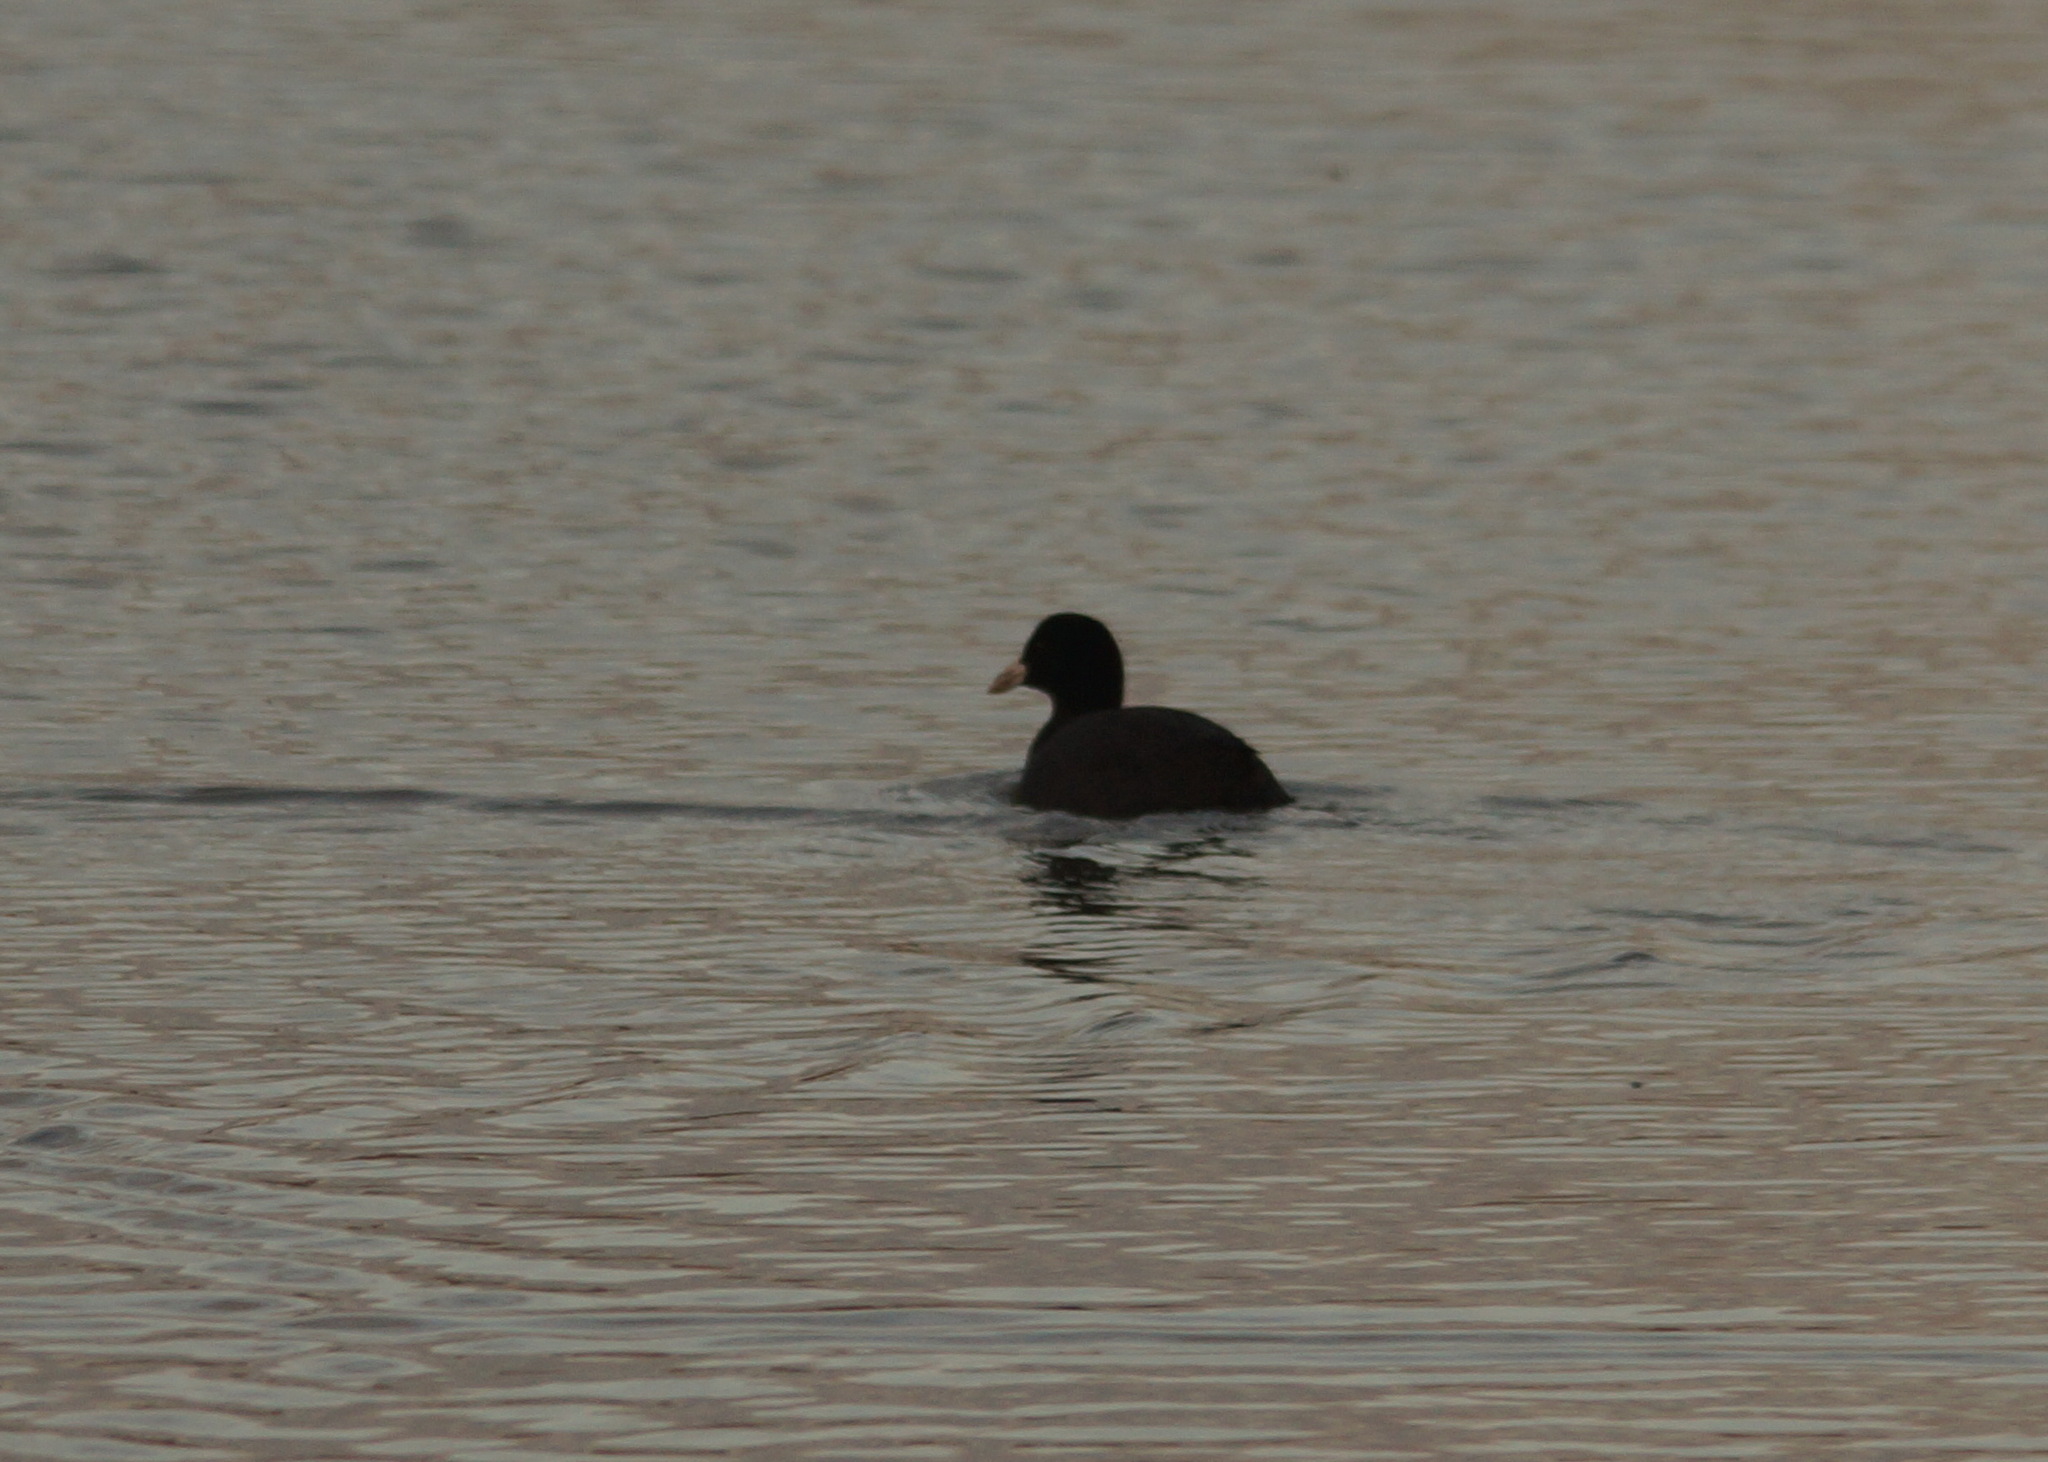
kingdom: Animalia
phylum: Chordata
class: Aves
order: Gruiformes
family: Rallidae
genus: Fulica
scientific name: Fulica atra
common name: Eurasian coot
